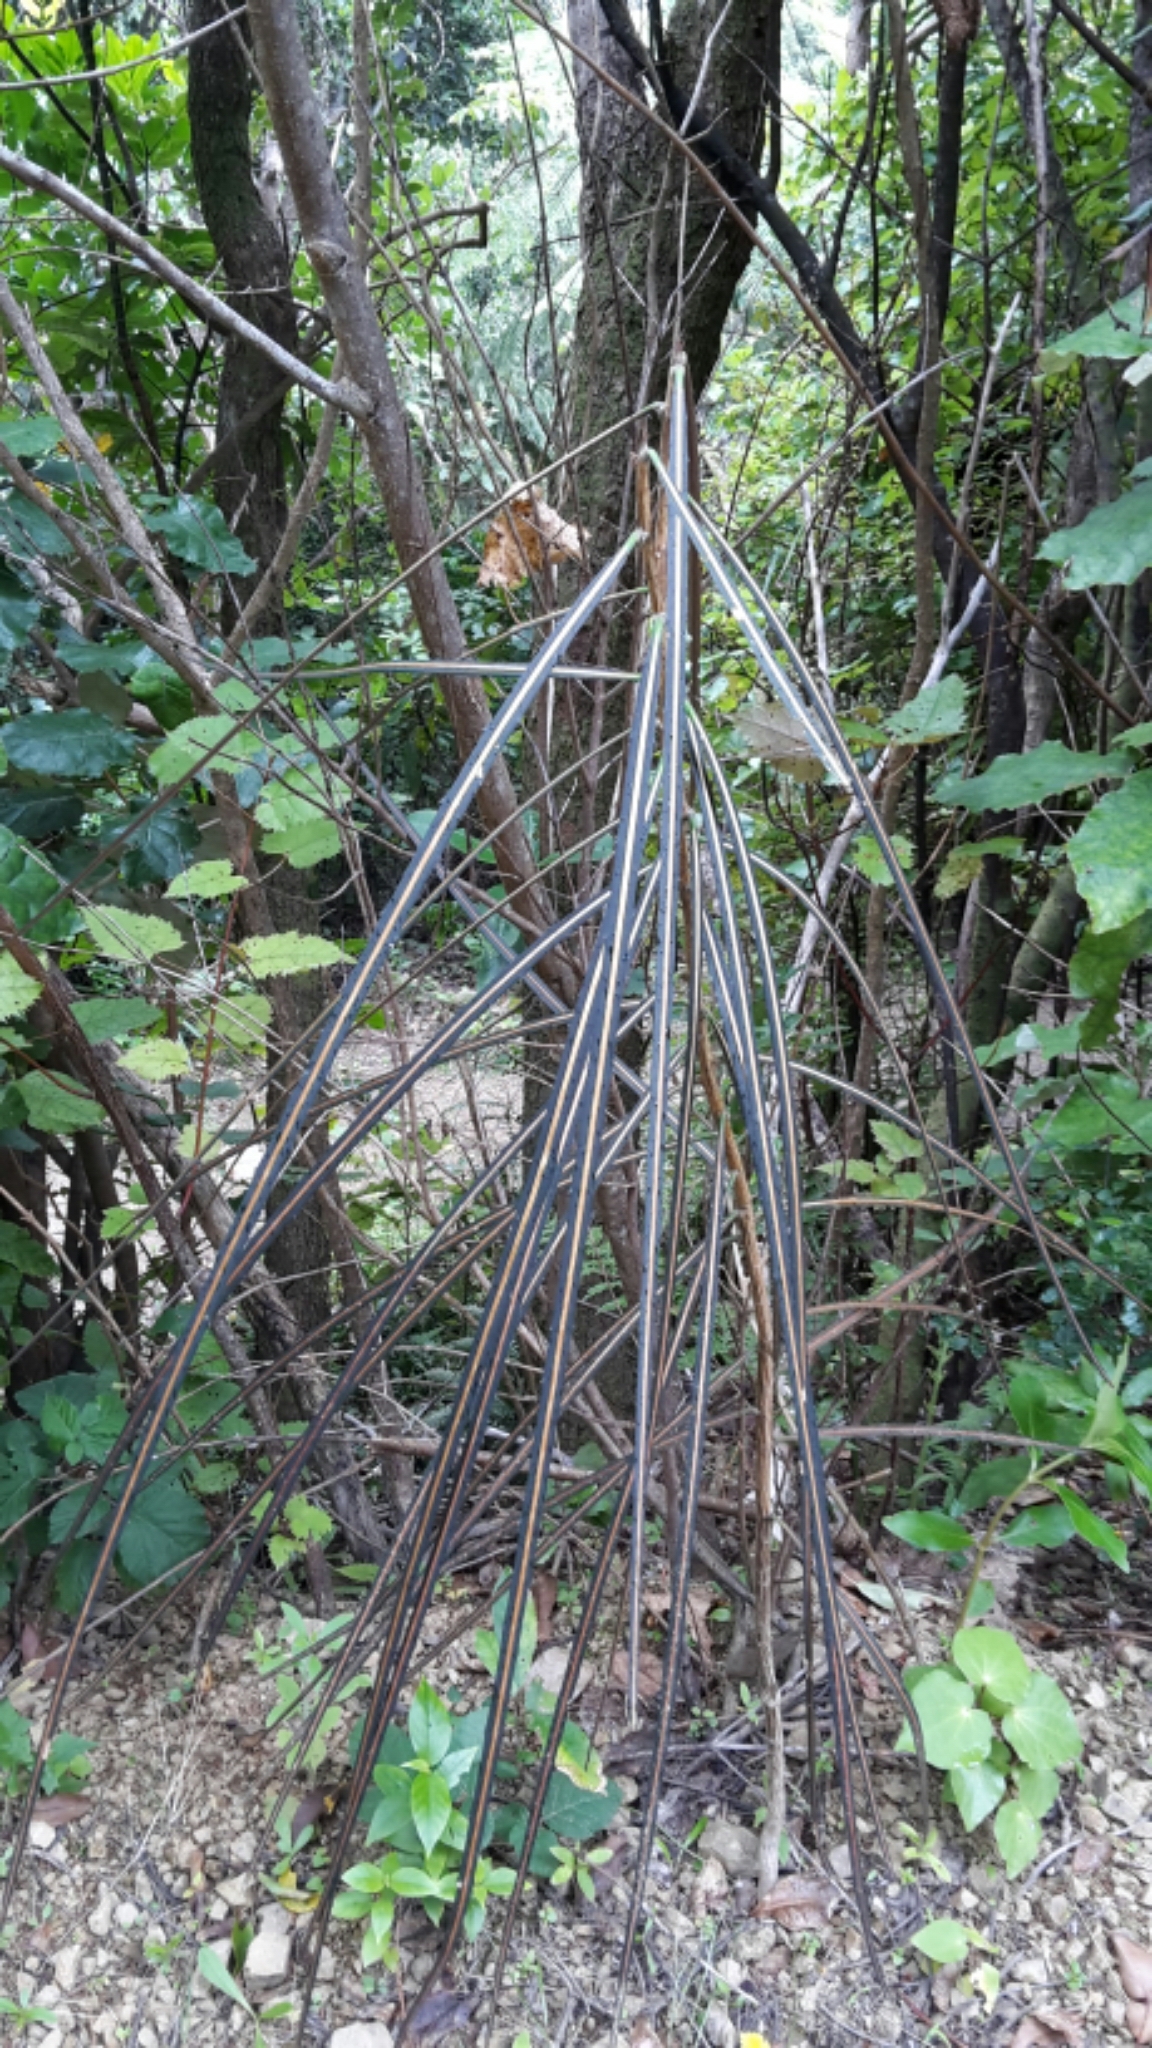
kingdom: Plantae
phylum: Tracheophyta
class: Magnoliopsida
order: Apiales
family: Araliaceae
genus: Pseudopanax
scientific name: Pseudopanax crassifolius
